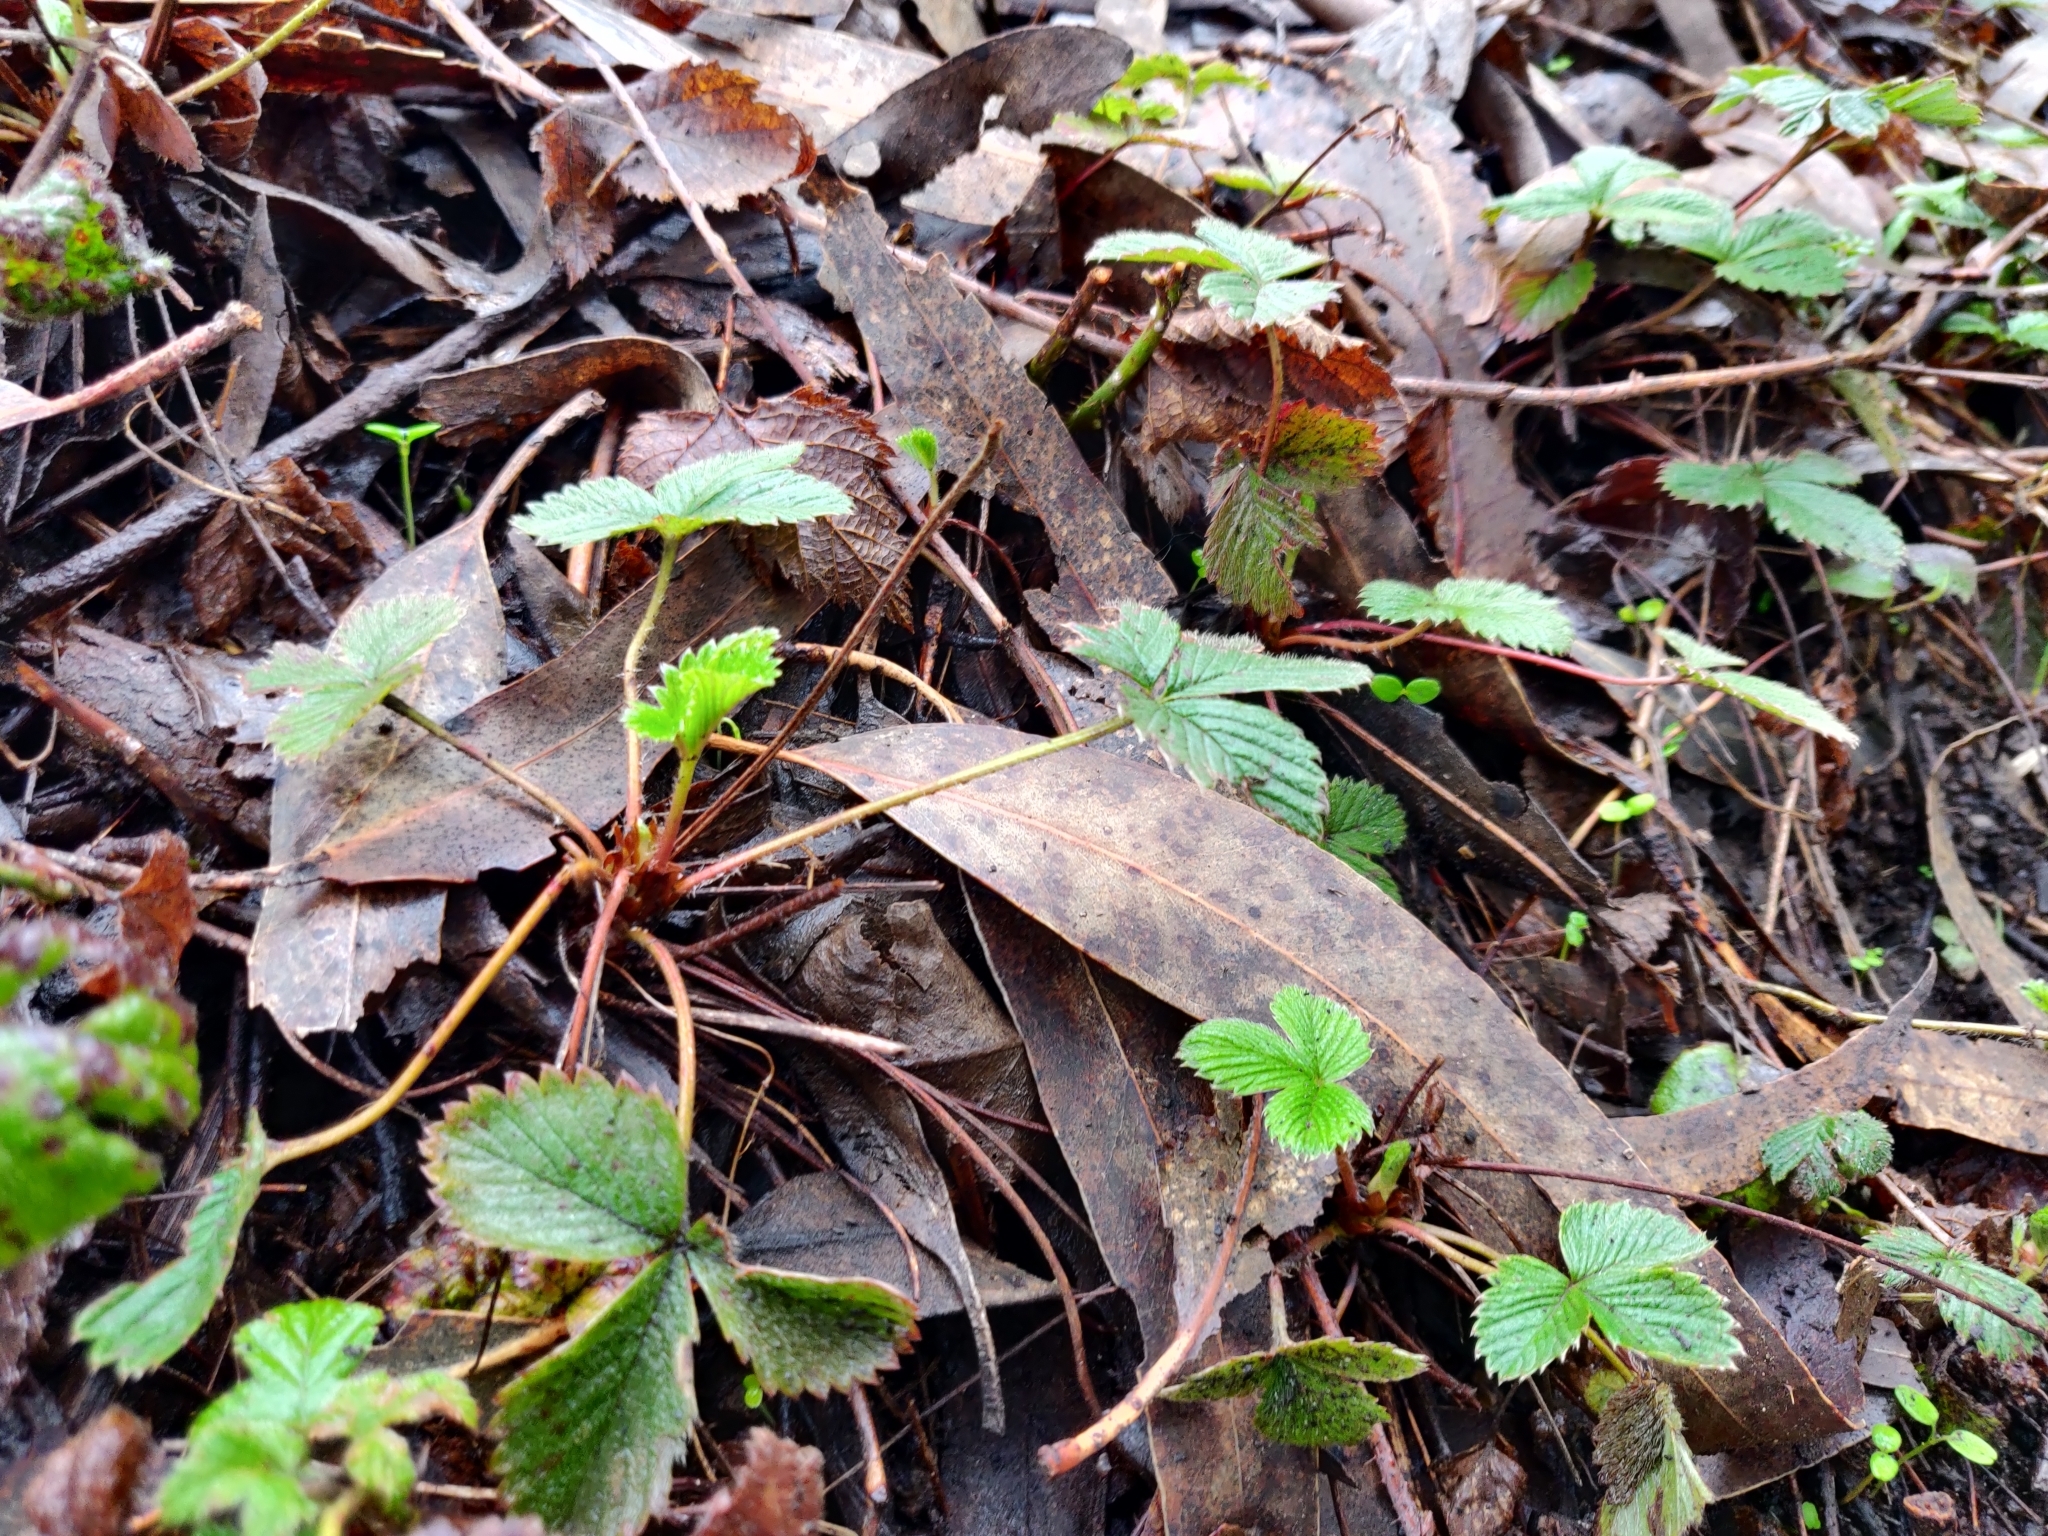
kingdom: Plantae
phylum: Tracheophyta
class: Magnoliopsida
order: Rosales
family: Rosaceae
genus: Fragaria
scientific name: Fragaria vesca
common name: Wild strawberry
